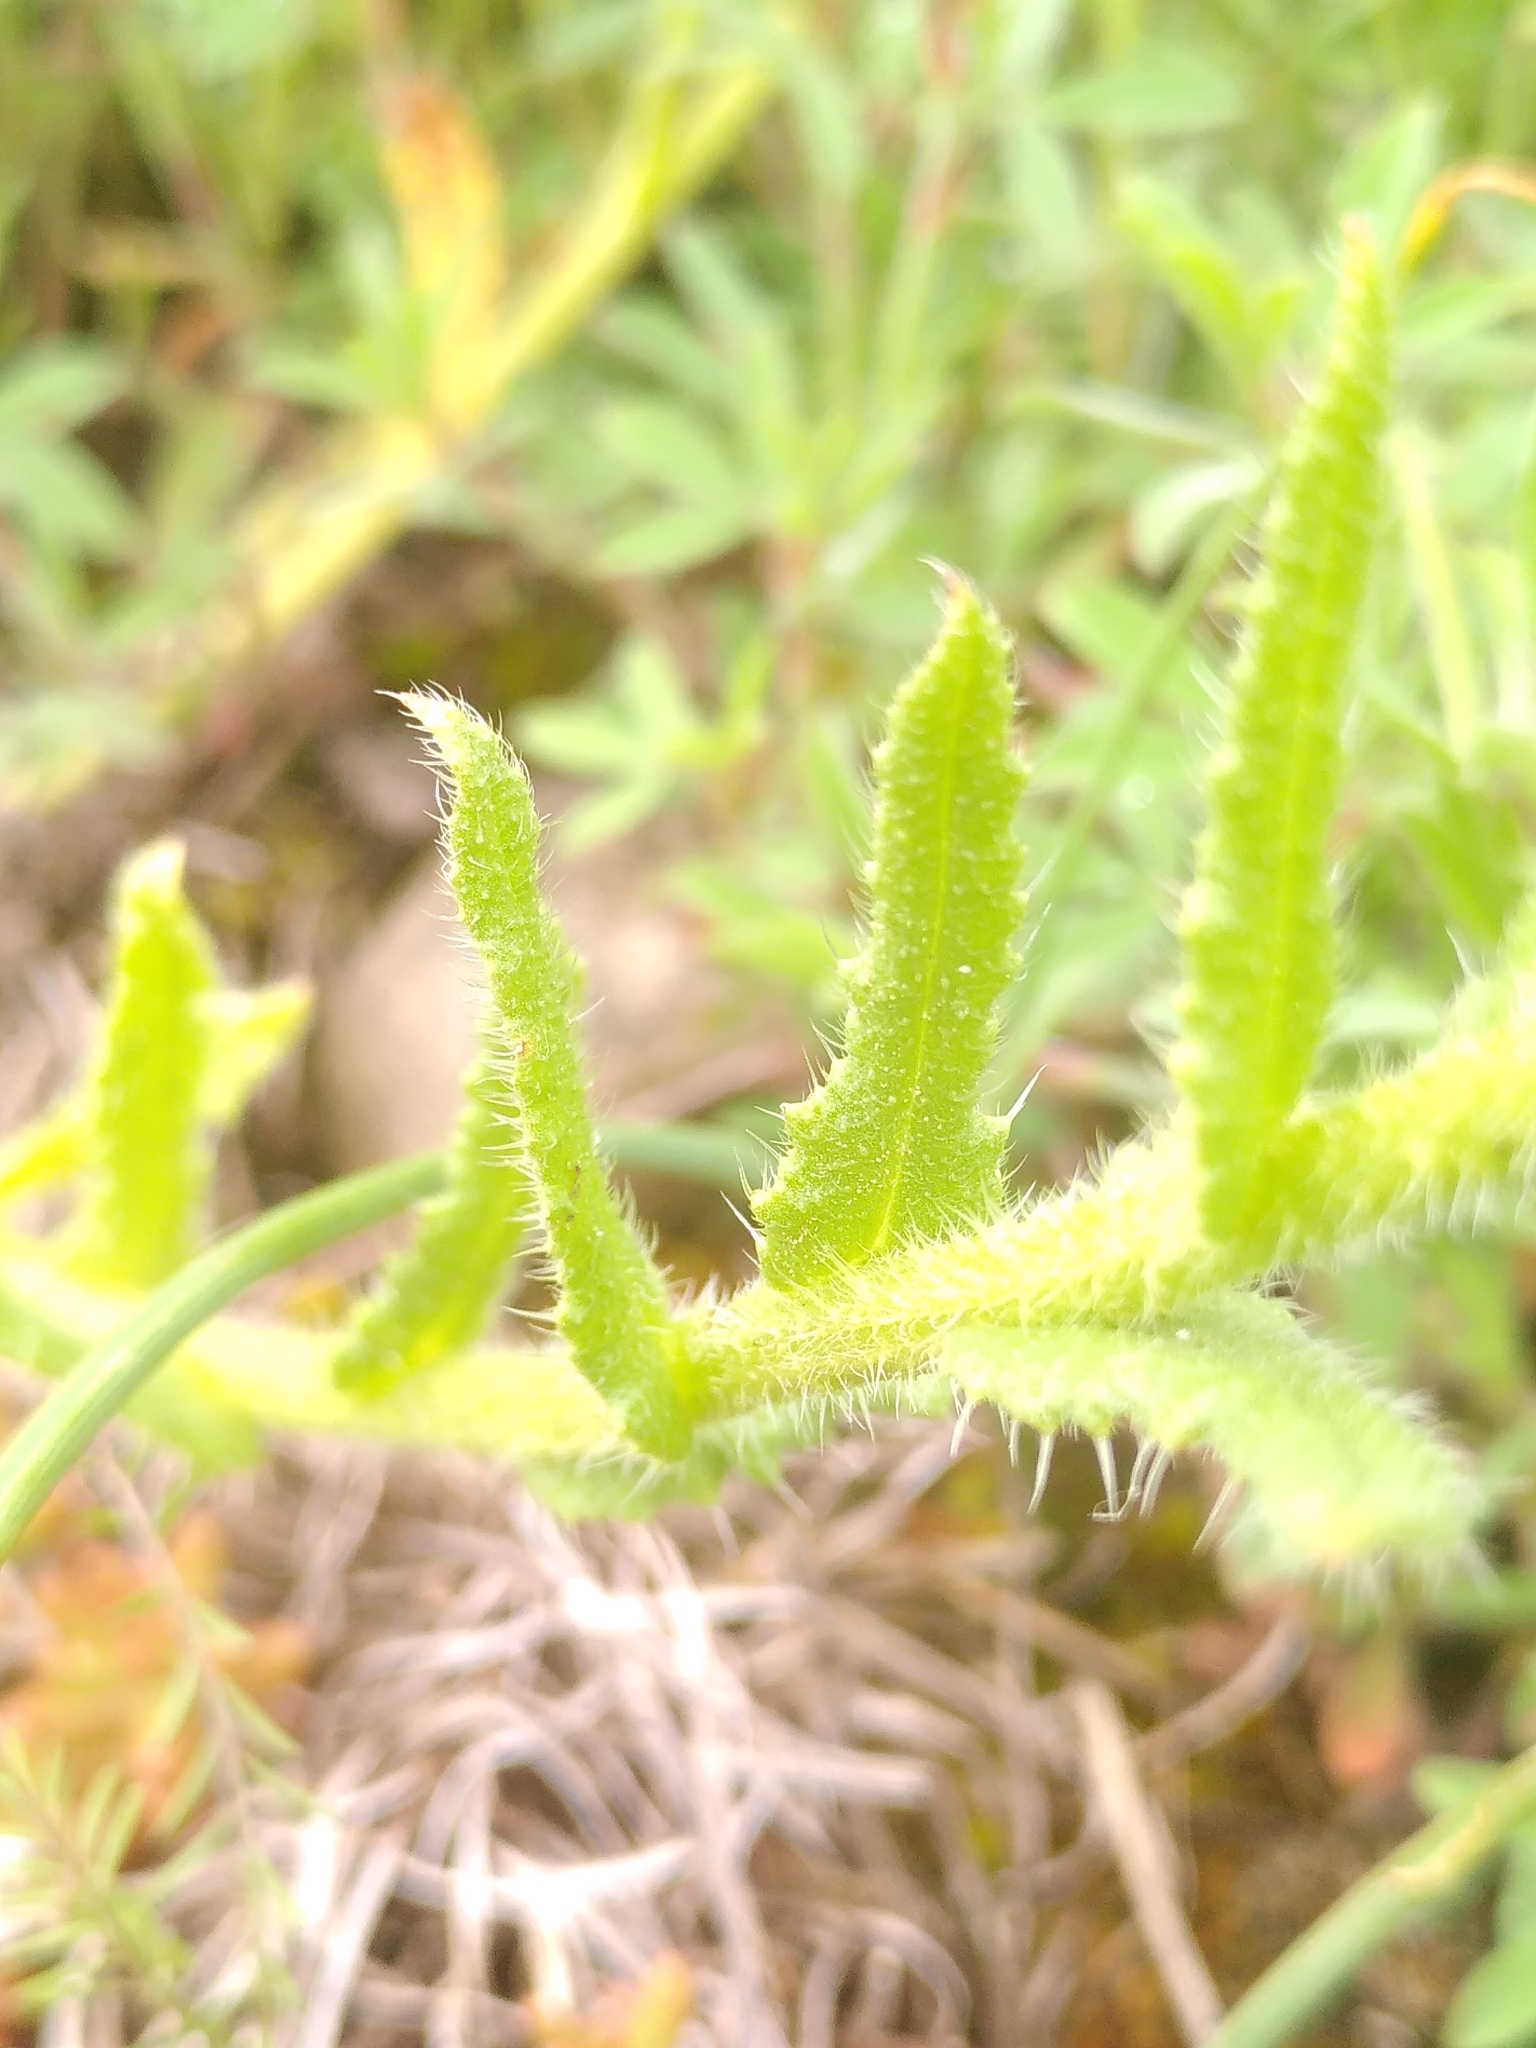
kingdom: Plantae
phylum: Tracheophyta
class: Magnoliopsida
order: Boraginales
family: Boraginaceae
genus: Lycopsis
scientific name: Lycopsis arvensis
